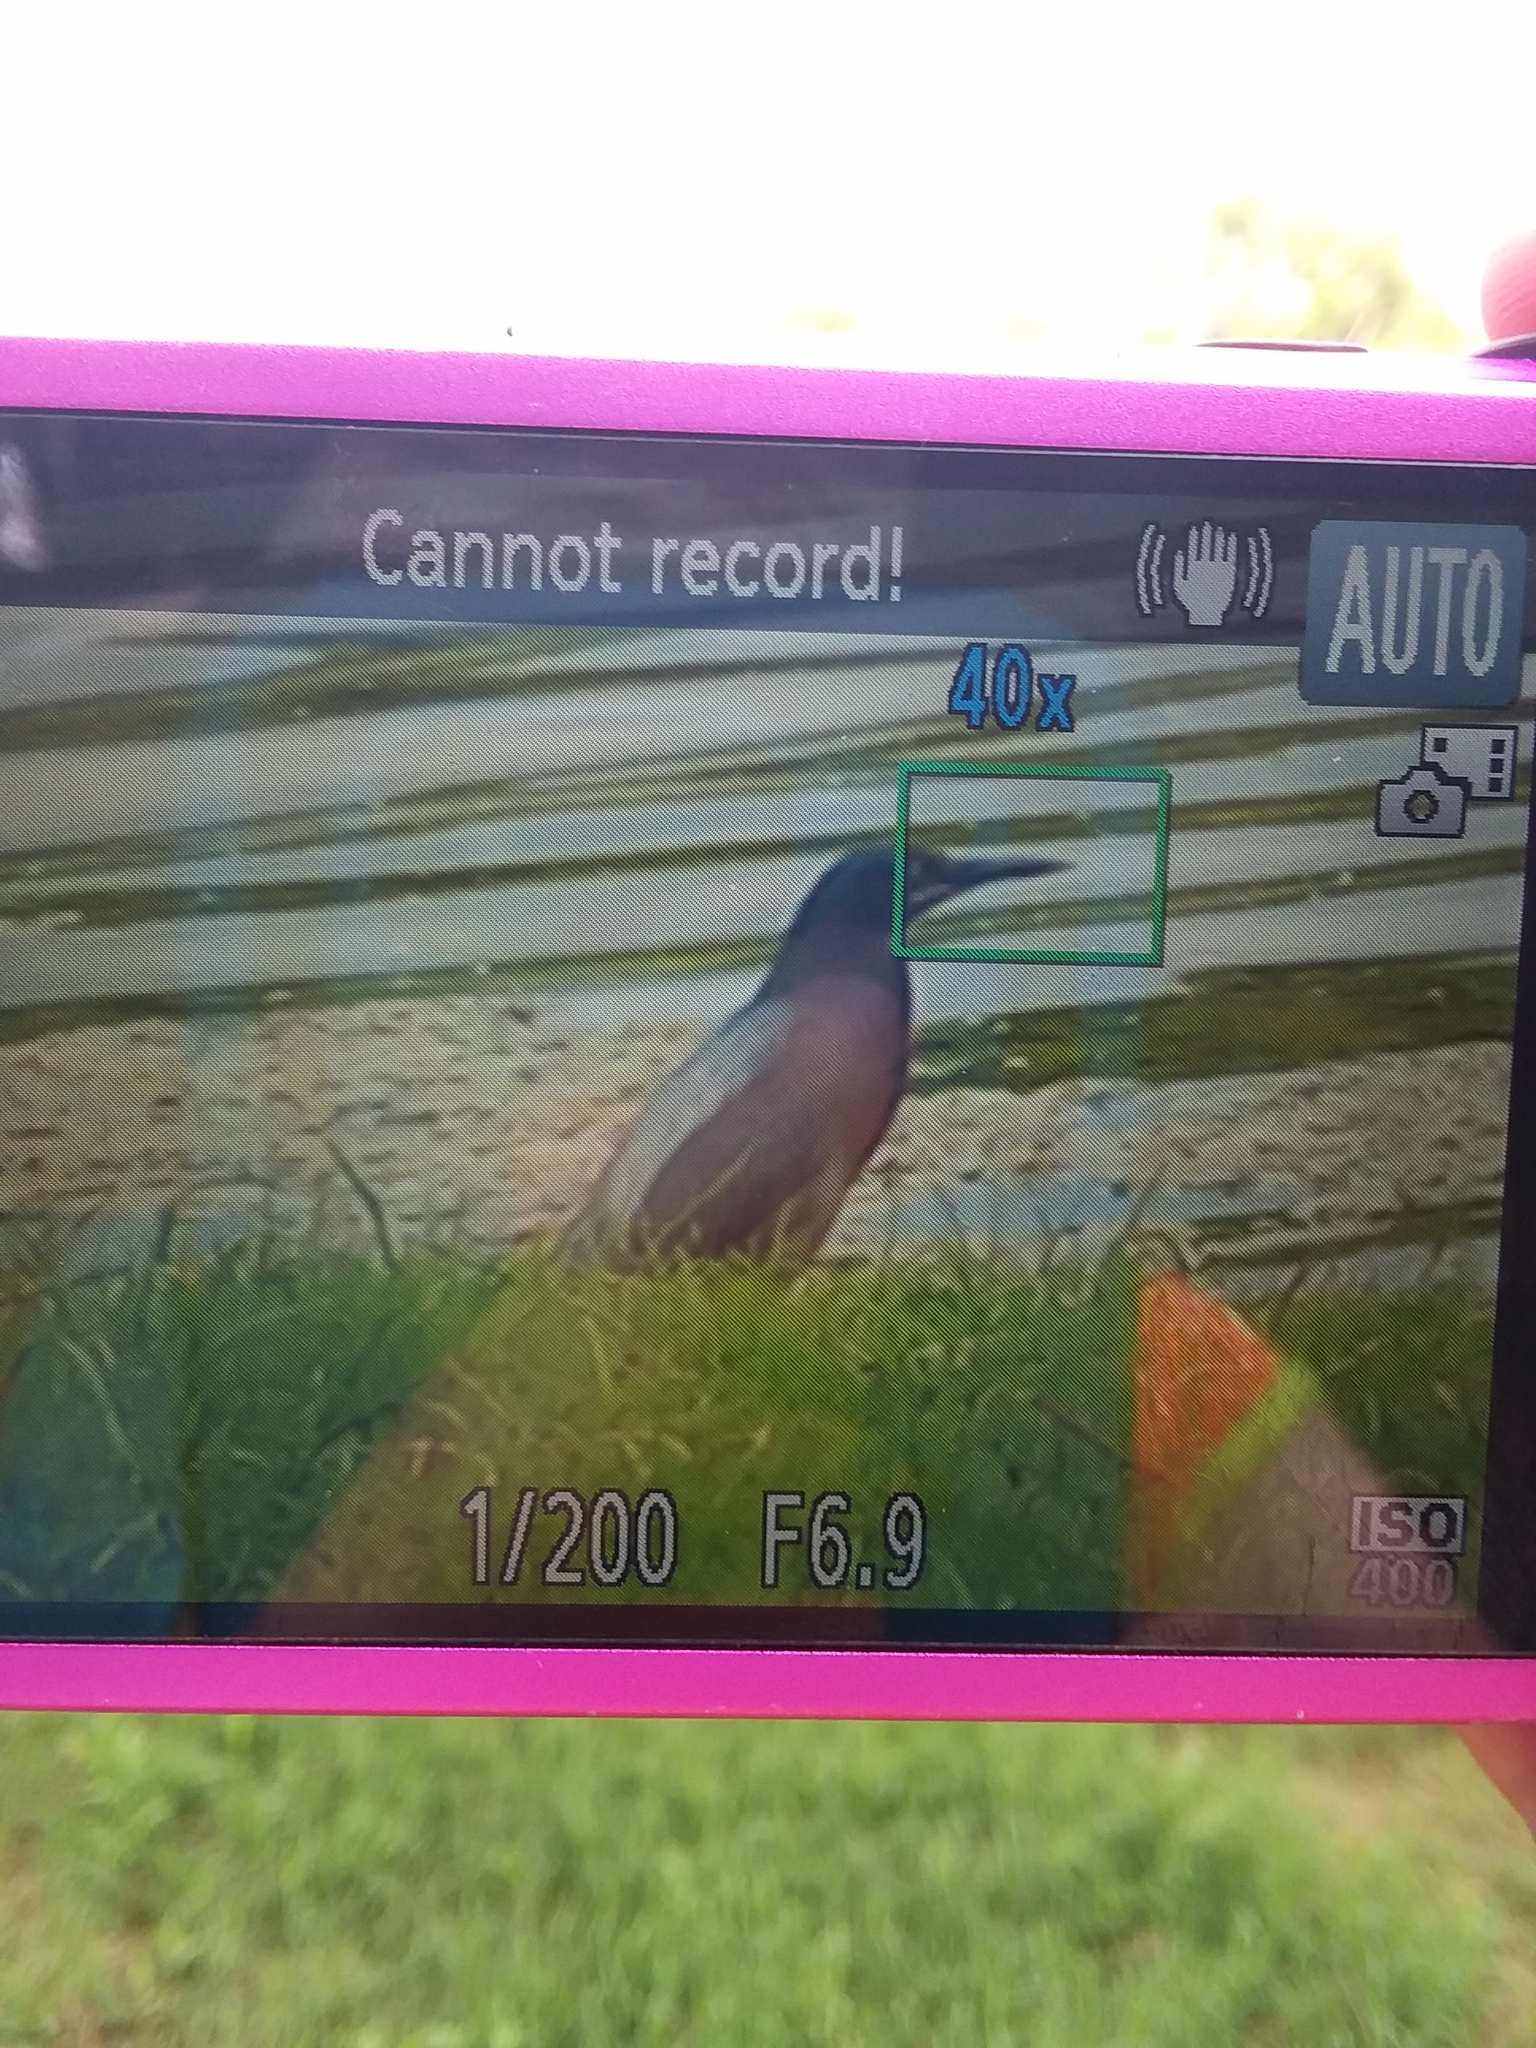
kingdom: Animalia
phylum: Chordata
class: Aves
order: Pelecaniformes
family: Ardeidae
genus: Butorides
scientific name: Butorides virescens
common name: Green heron
